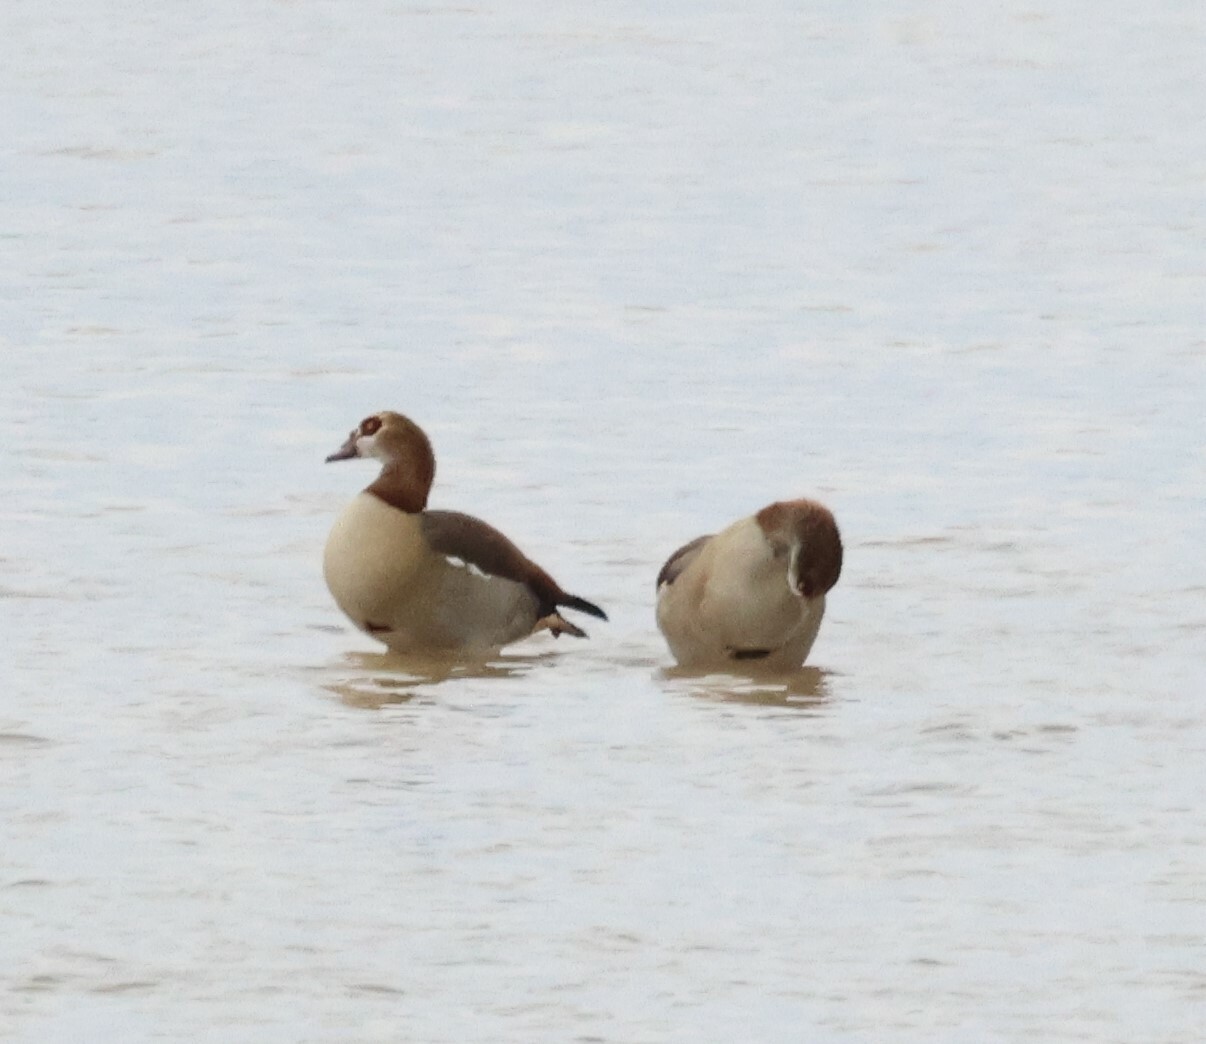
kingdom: Animalia
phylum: Chordata
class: Aves
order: Anseriformes
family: Anatidae
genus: Alopochen
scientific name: Alopochen aegyptiaca
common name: Egyptian goose
